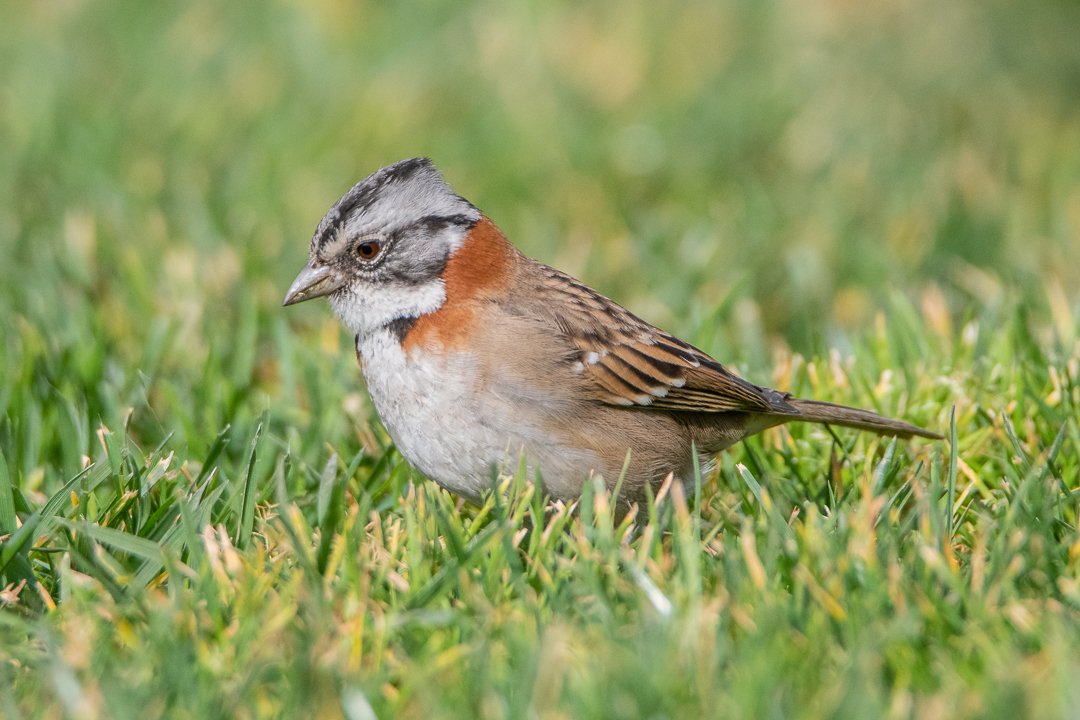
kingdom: Animalia
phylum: Chordata
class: Aves
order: Passeriformes
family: Passerellidae
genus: Zonotrichia
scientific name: Zonotrichia capensis
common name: Rufous-collared sparrow
